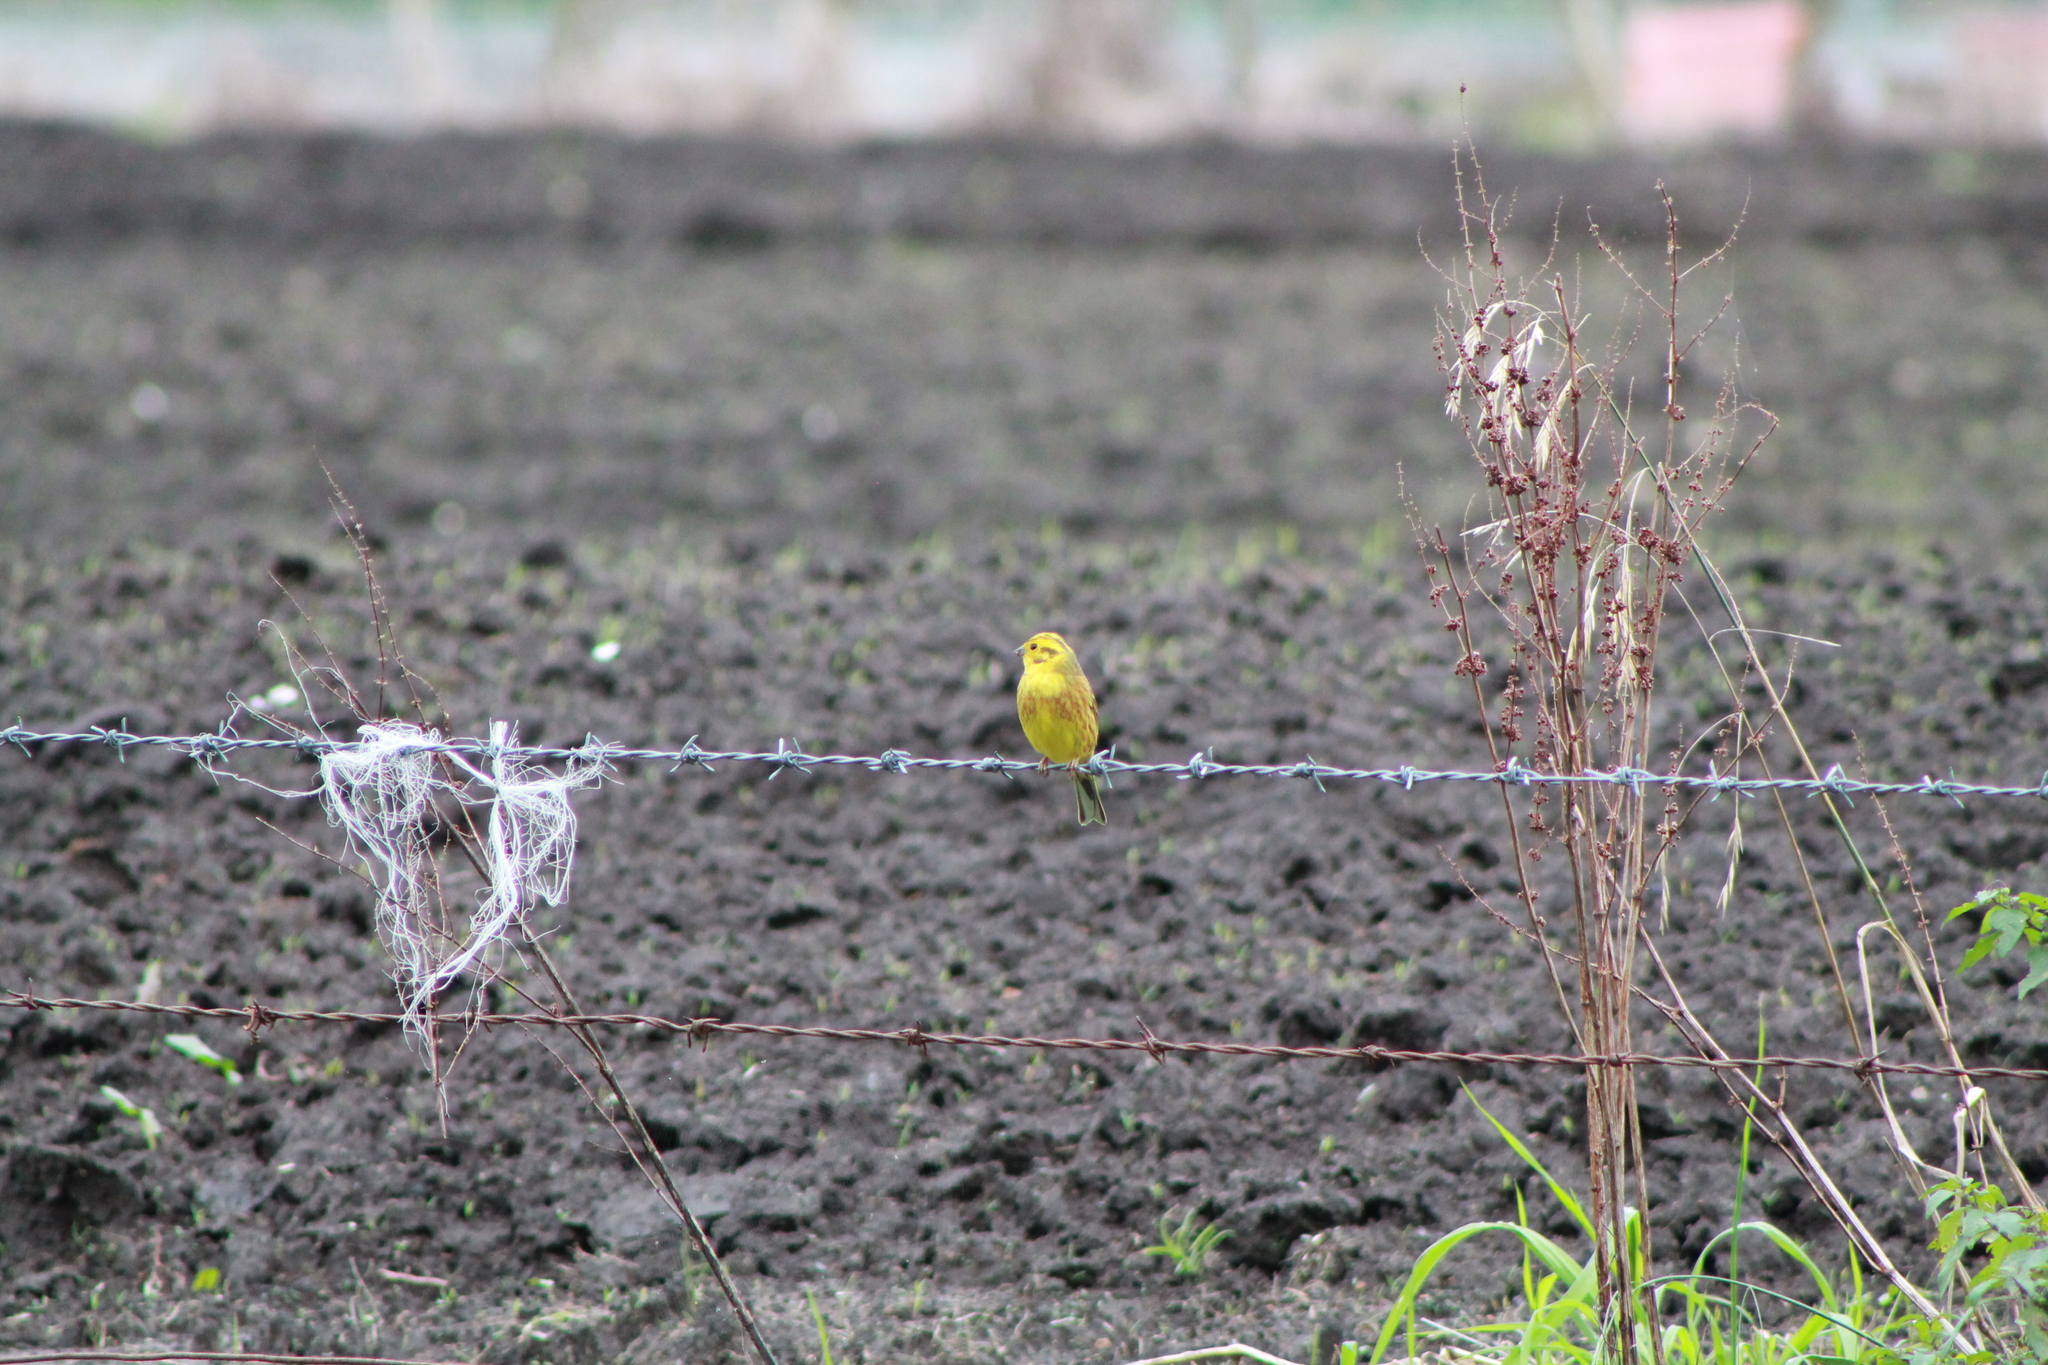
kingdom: Animalia
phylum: Chordata
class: Aves
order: Passeriformes
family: Emberizidae
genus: Emberiza
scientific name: Emberiza citrinella
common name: Yellowhammer
